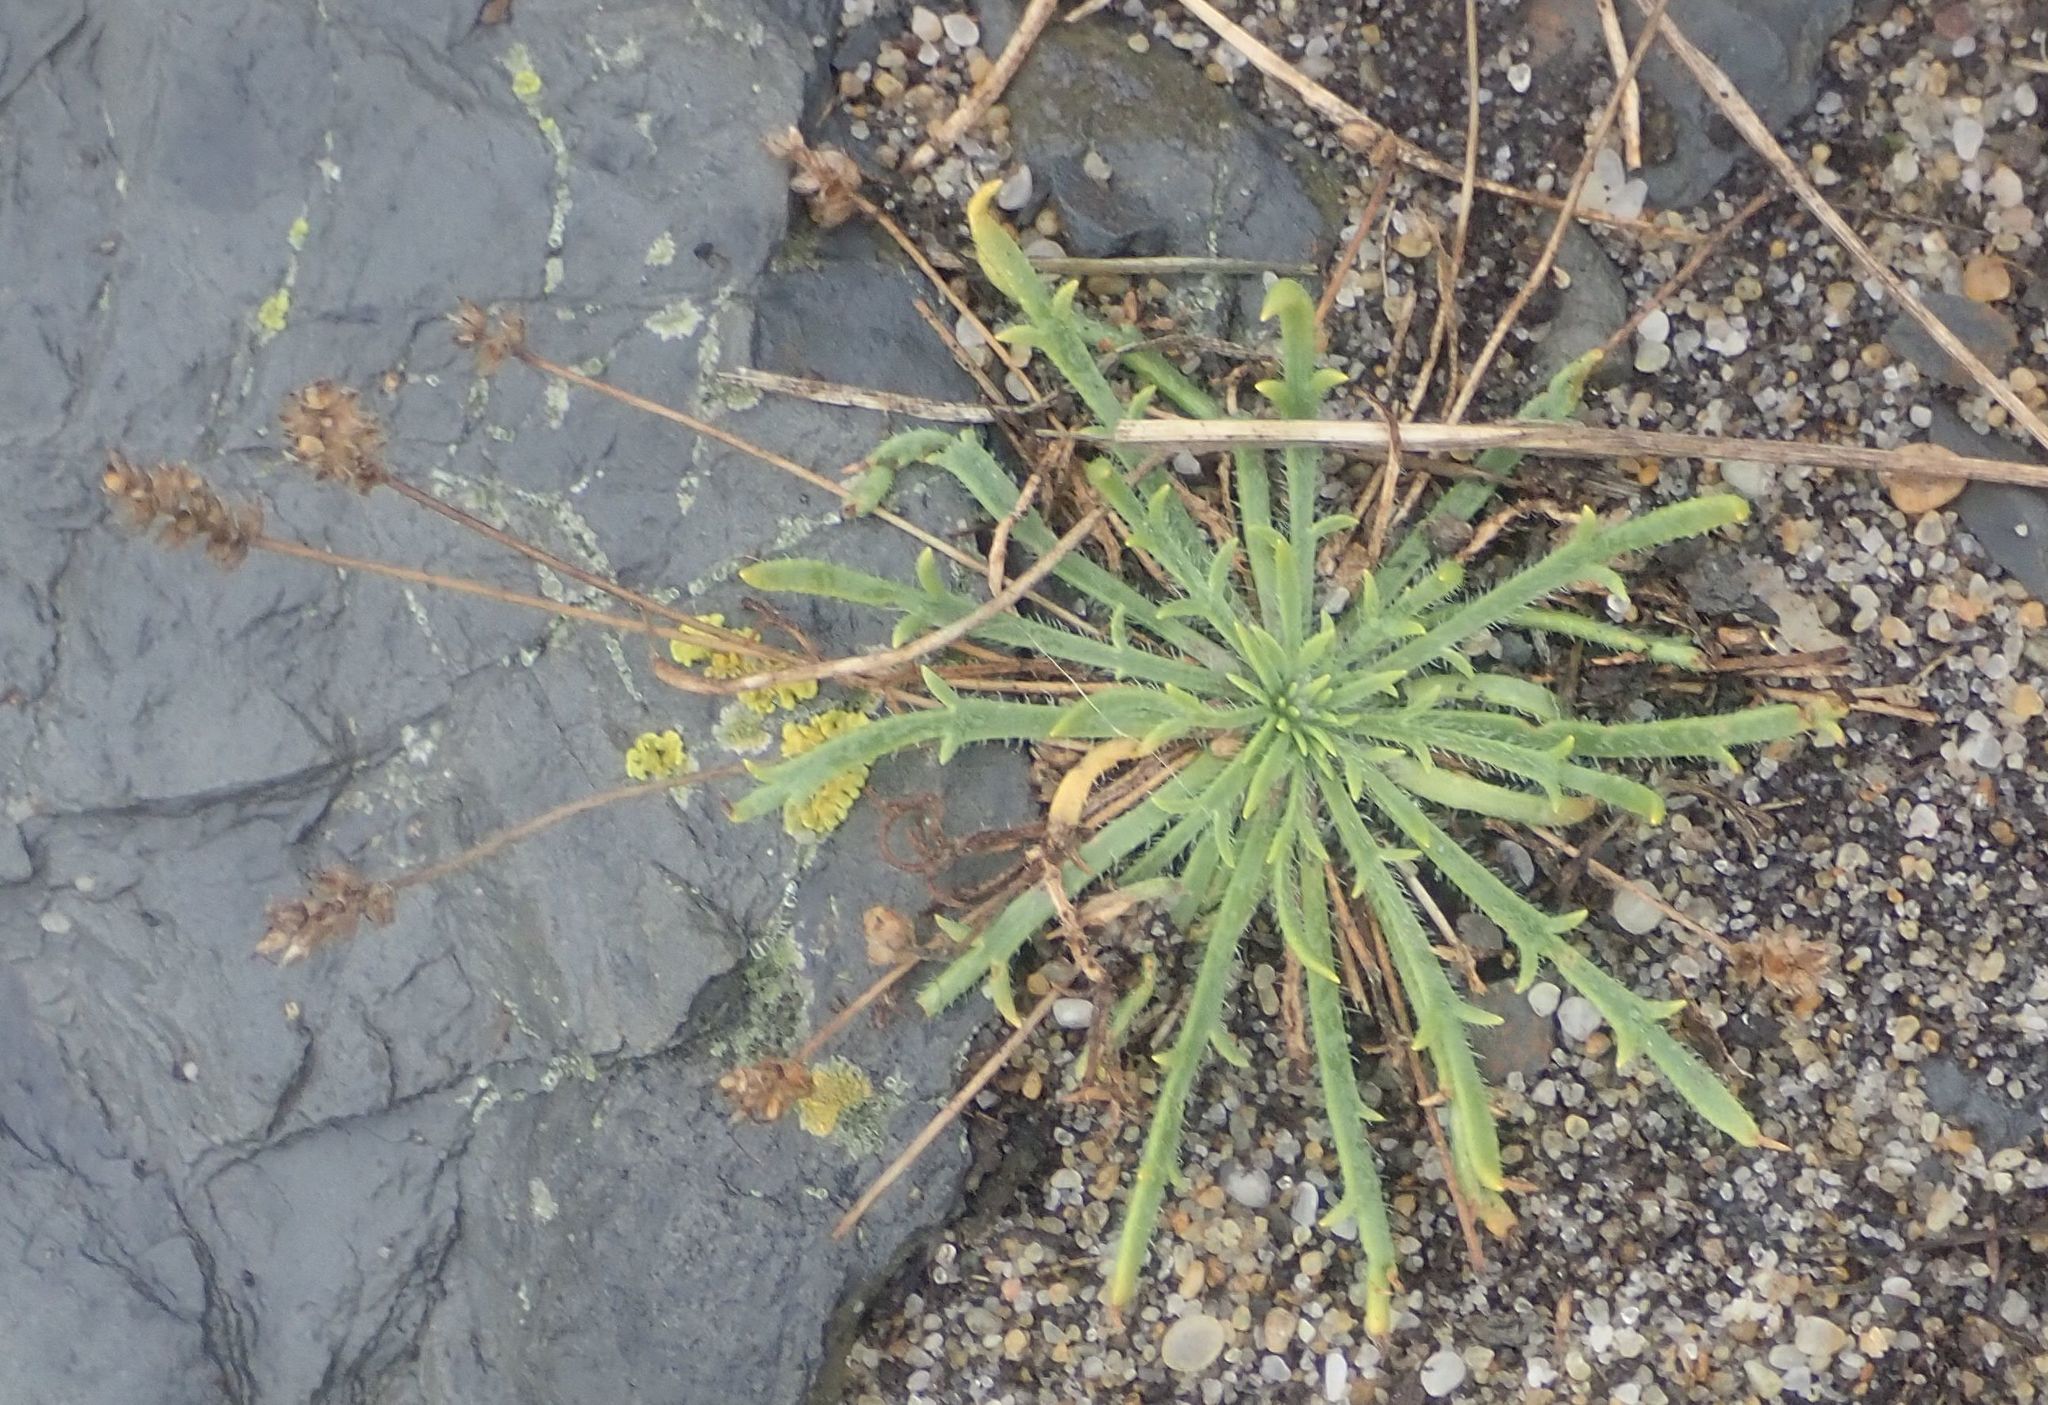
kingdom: Plantae
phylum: Tracheophyta
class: Magnoliopsida
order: Lamiales
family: Plantaginaceae
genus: Plantago
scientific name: Plantago coronopus
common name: Buck's-horn plantain
